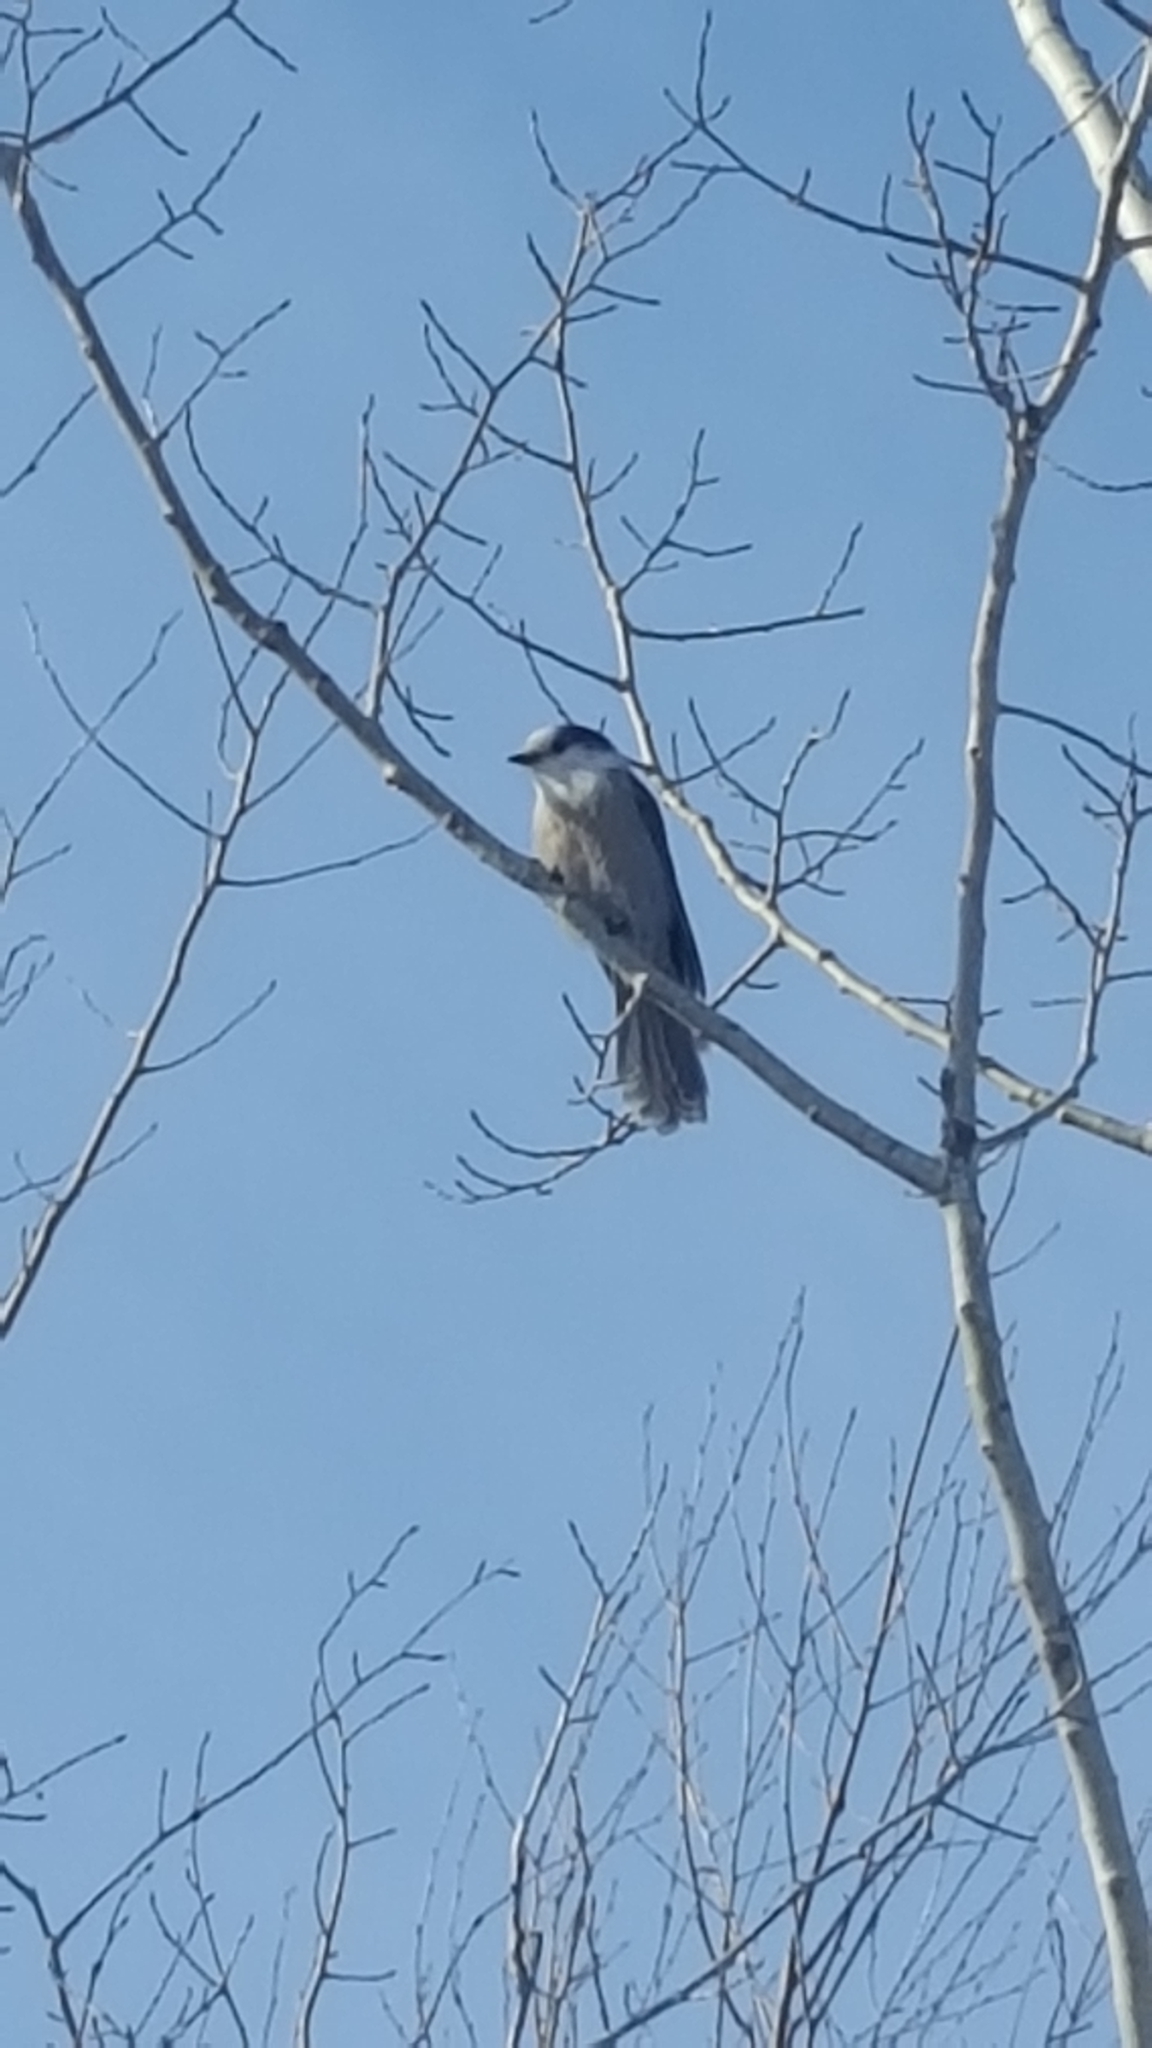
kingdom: Animalia
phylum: Chordata
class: Aves
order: Passeriformes
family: Corvidae
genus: Perisoreus
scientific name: Perisoreus canadensis
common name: Gray jay
